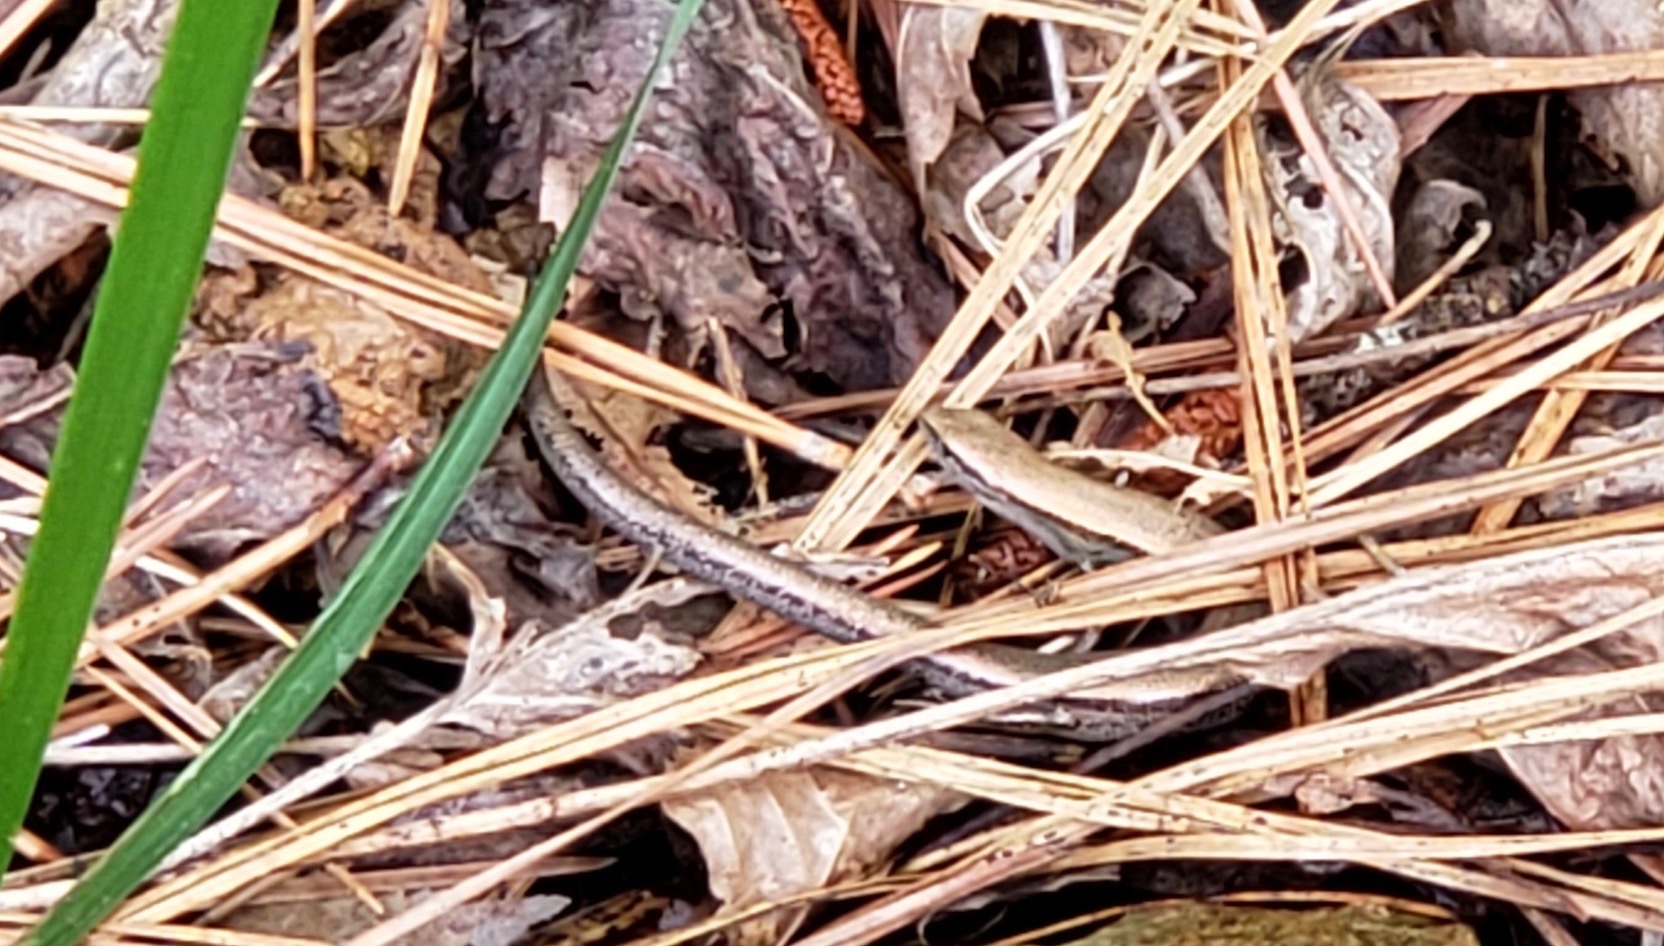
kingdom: Animalia
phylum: Chordata
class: Squamata
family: Scincidae
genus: Scincella
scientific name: Scincella lateralis
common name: Ground skink
